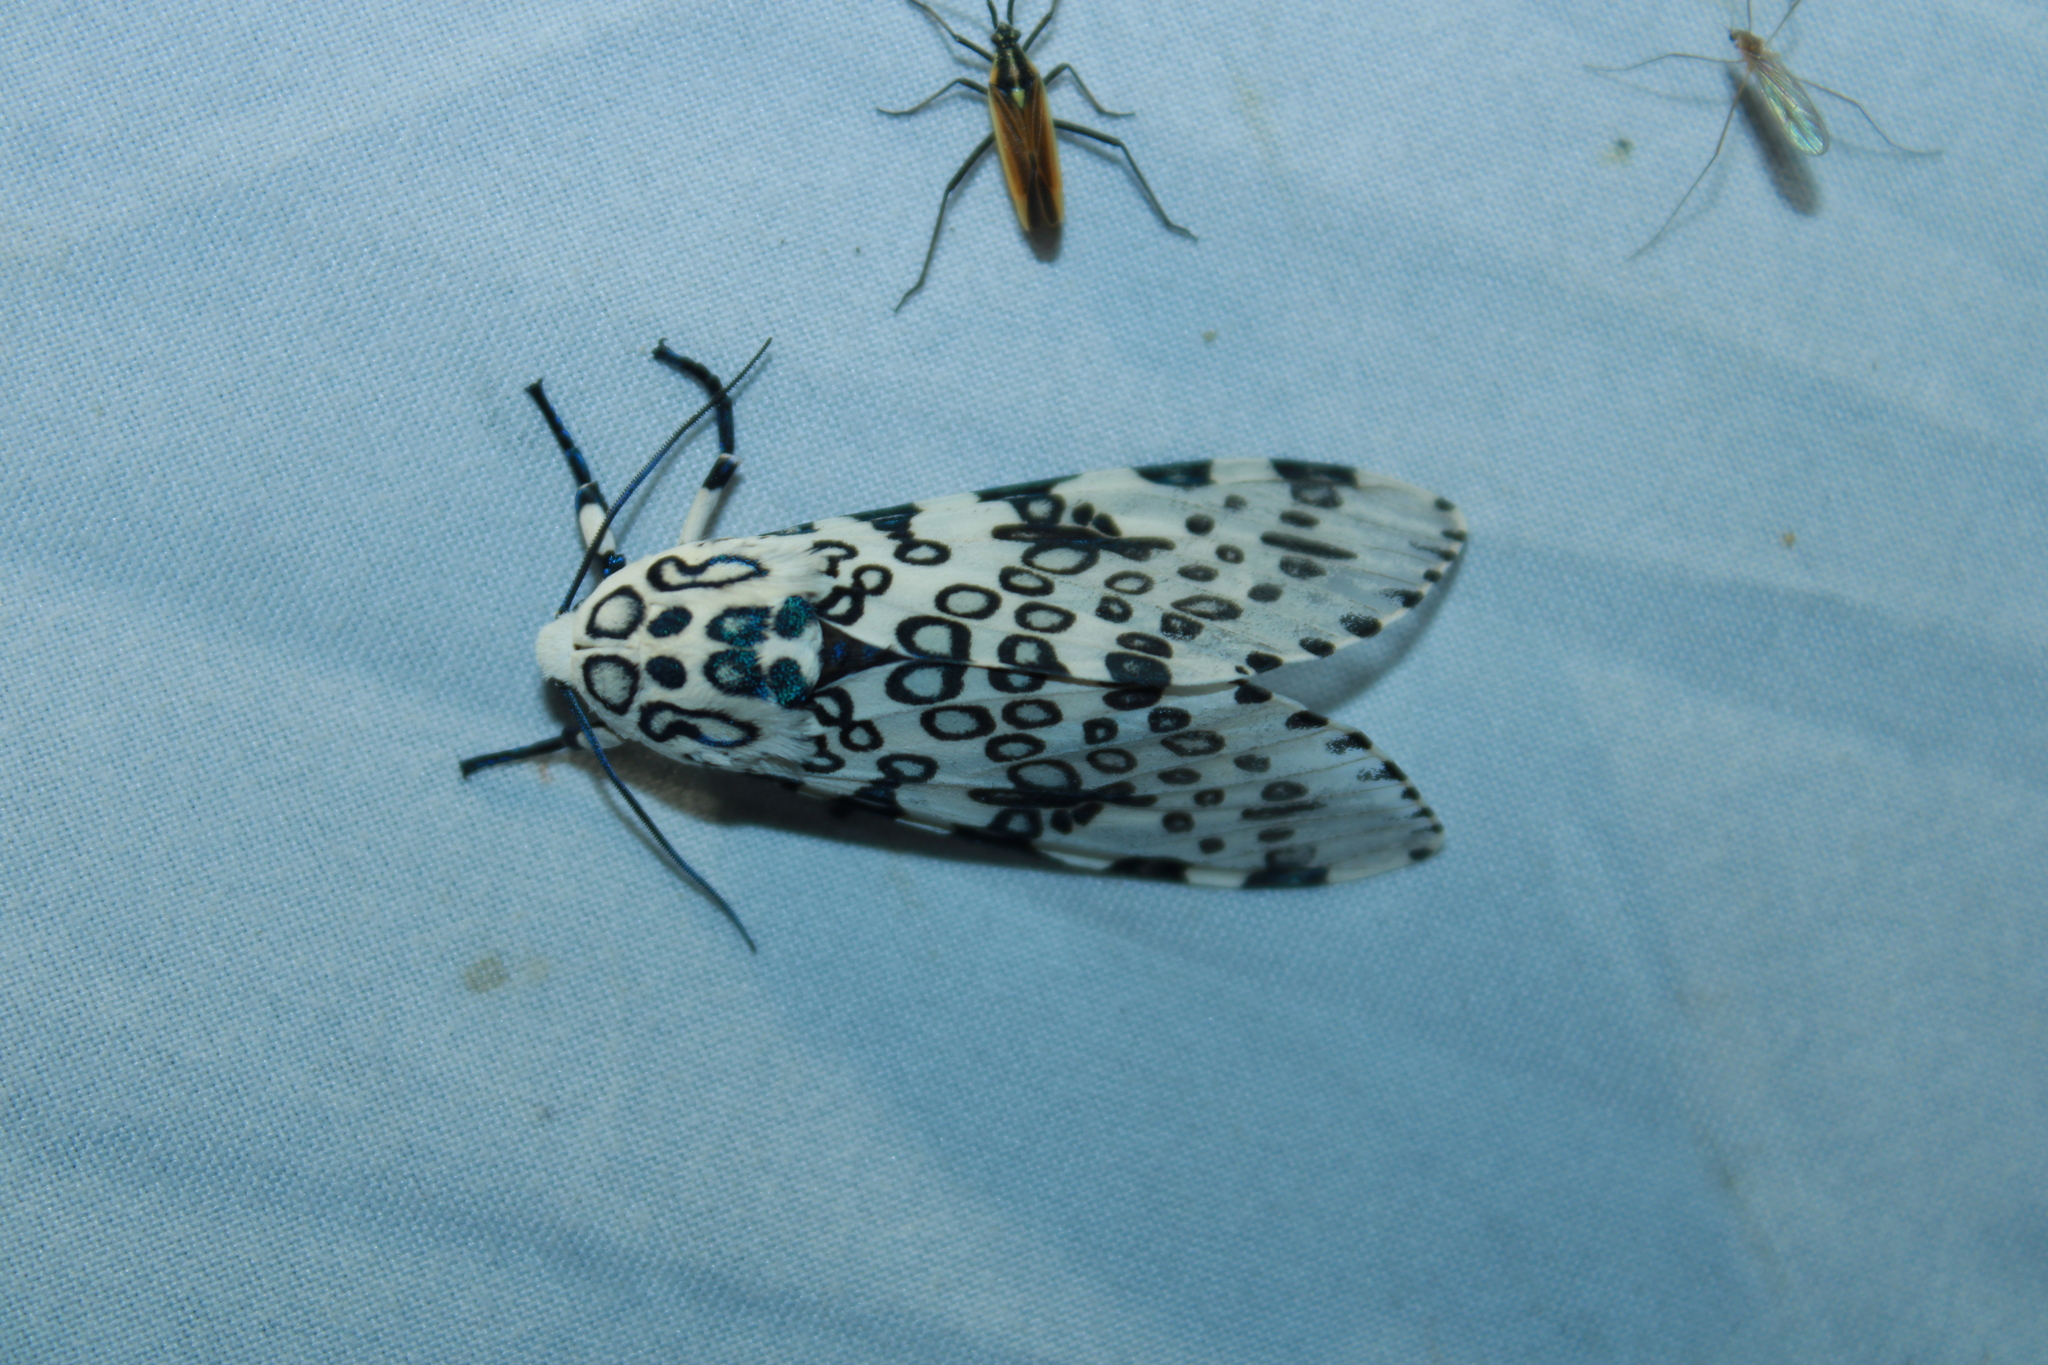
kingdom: Animalia
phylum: Arthropoda
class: Insecta
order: Lepidoptera
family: Erebidae
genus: Hypercompe
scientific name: Hypercompe scribonia
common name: Giant leopard moth
